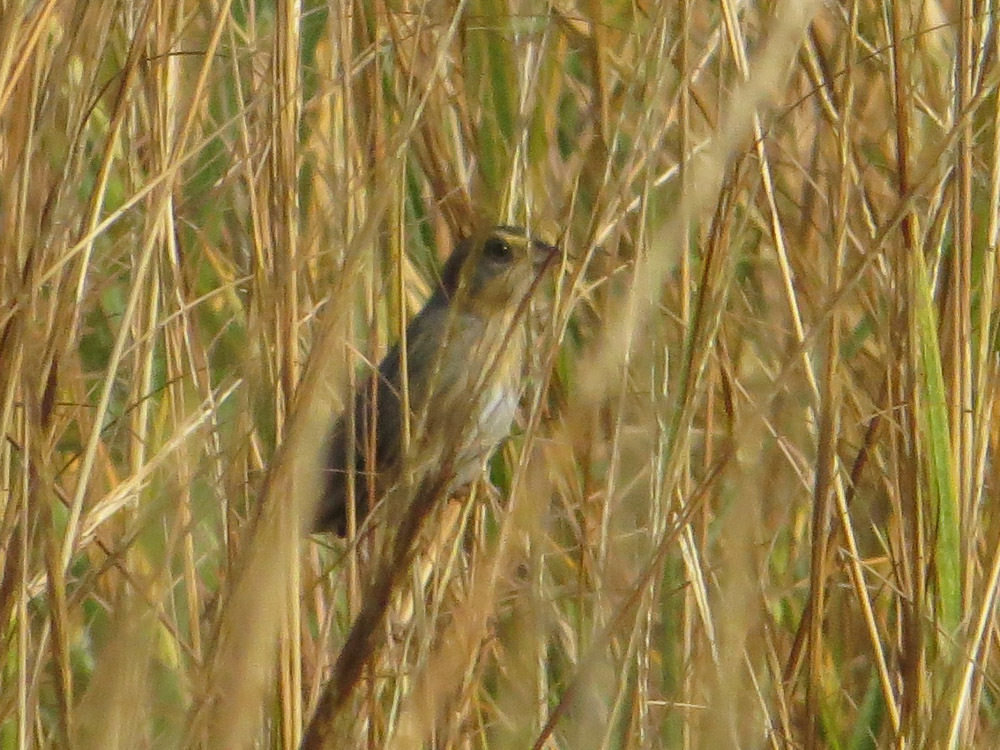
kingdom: Animalia
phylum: Chordata
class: Aves
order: Passeriformes
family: Passerellidae
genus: Ammospiza
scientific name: Ammospiza caudacuta
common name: Saltmarsh sparrow
